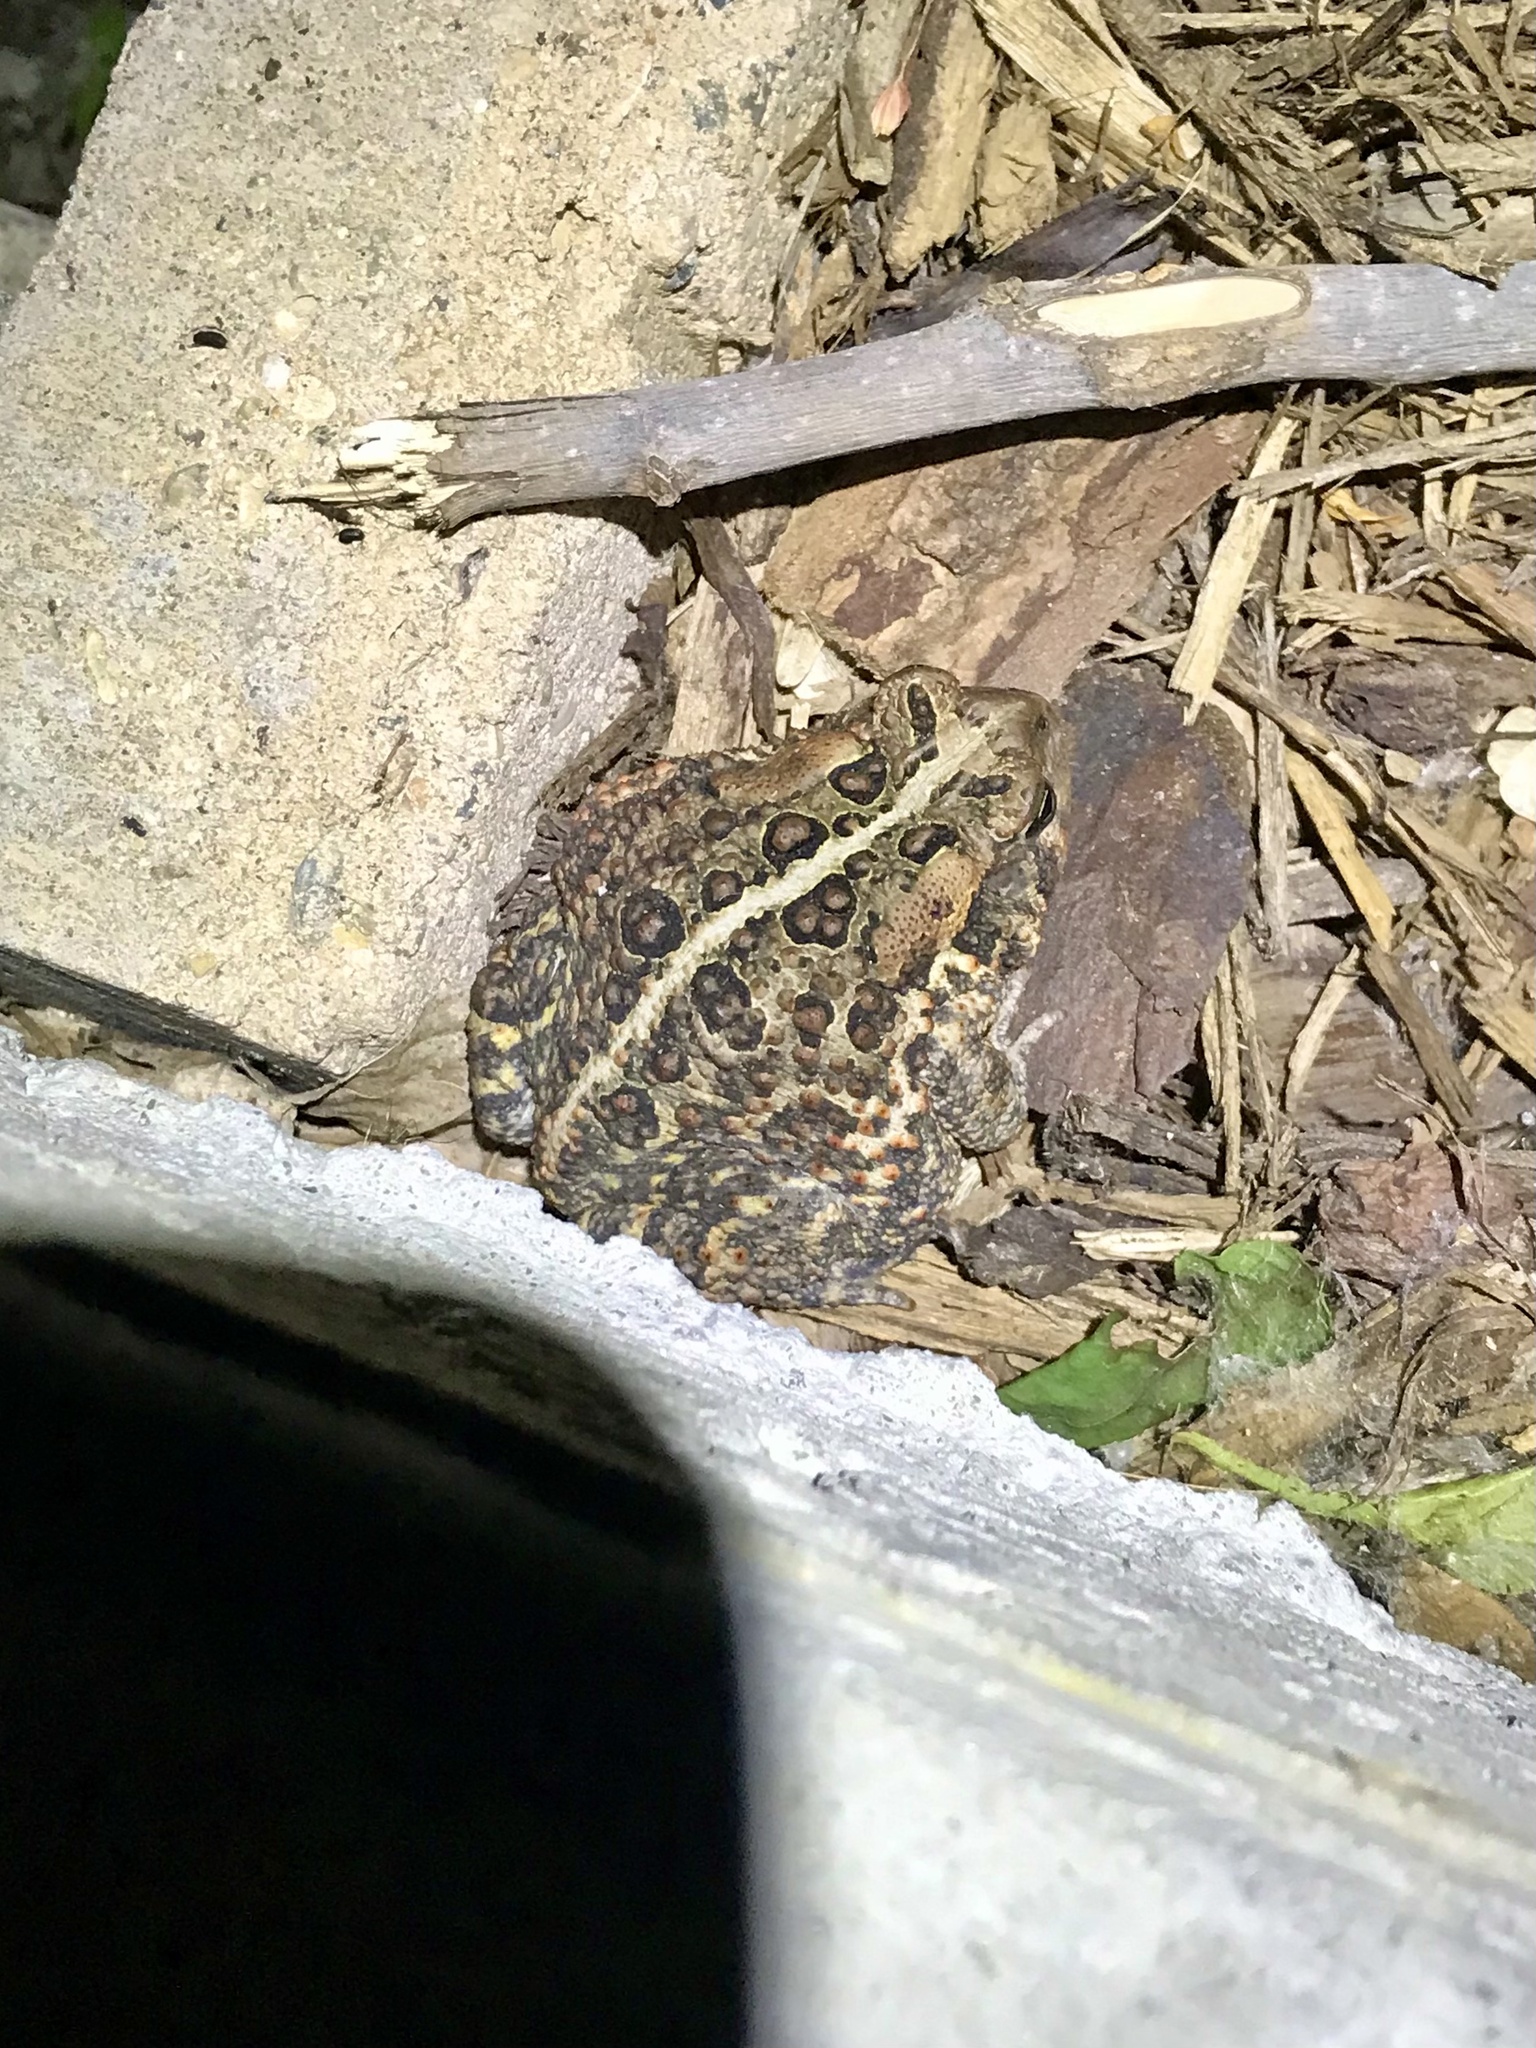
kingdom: Animalia
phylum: Chordata
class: Amphibia
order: Anura
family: Bufonidae
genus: Anaxyrus
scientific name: Anaxyrus americanus
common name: American toad
